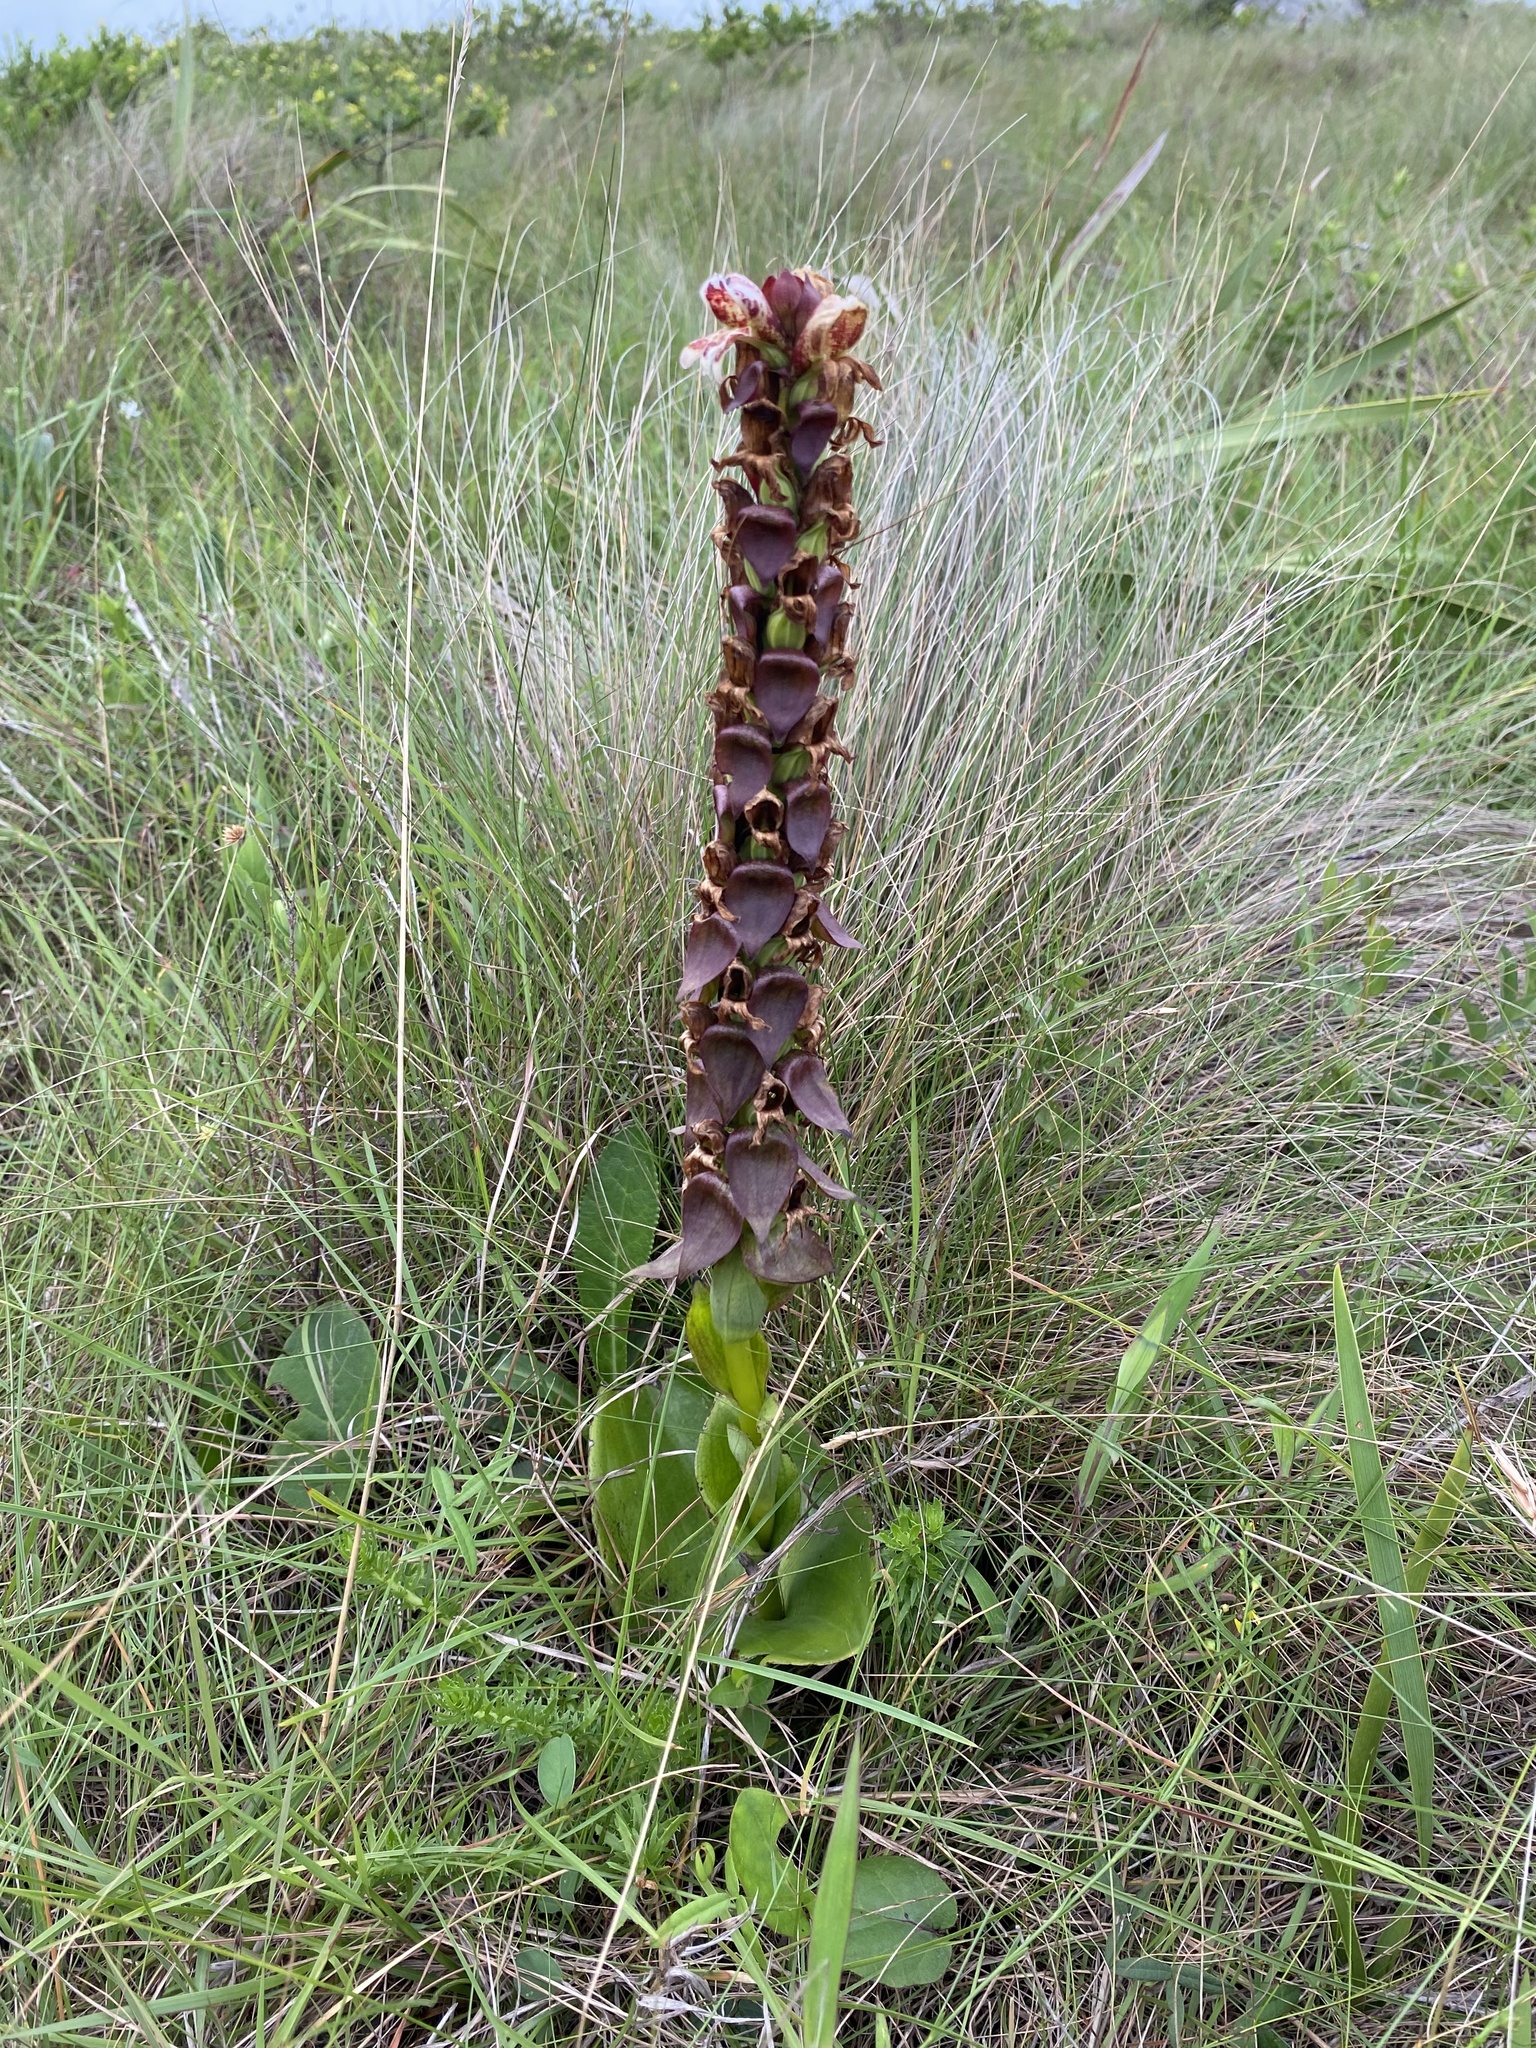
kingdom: Plantae
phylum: Tracheophyta
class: Liliopsida
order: Asparagales
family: Orchidaceae
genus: Satyrium
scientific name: Satyrium sphaerocarpum
